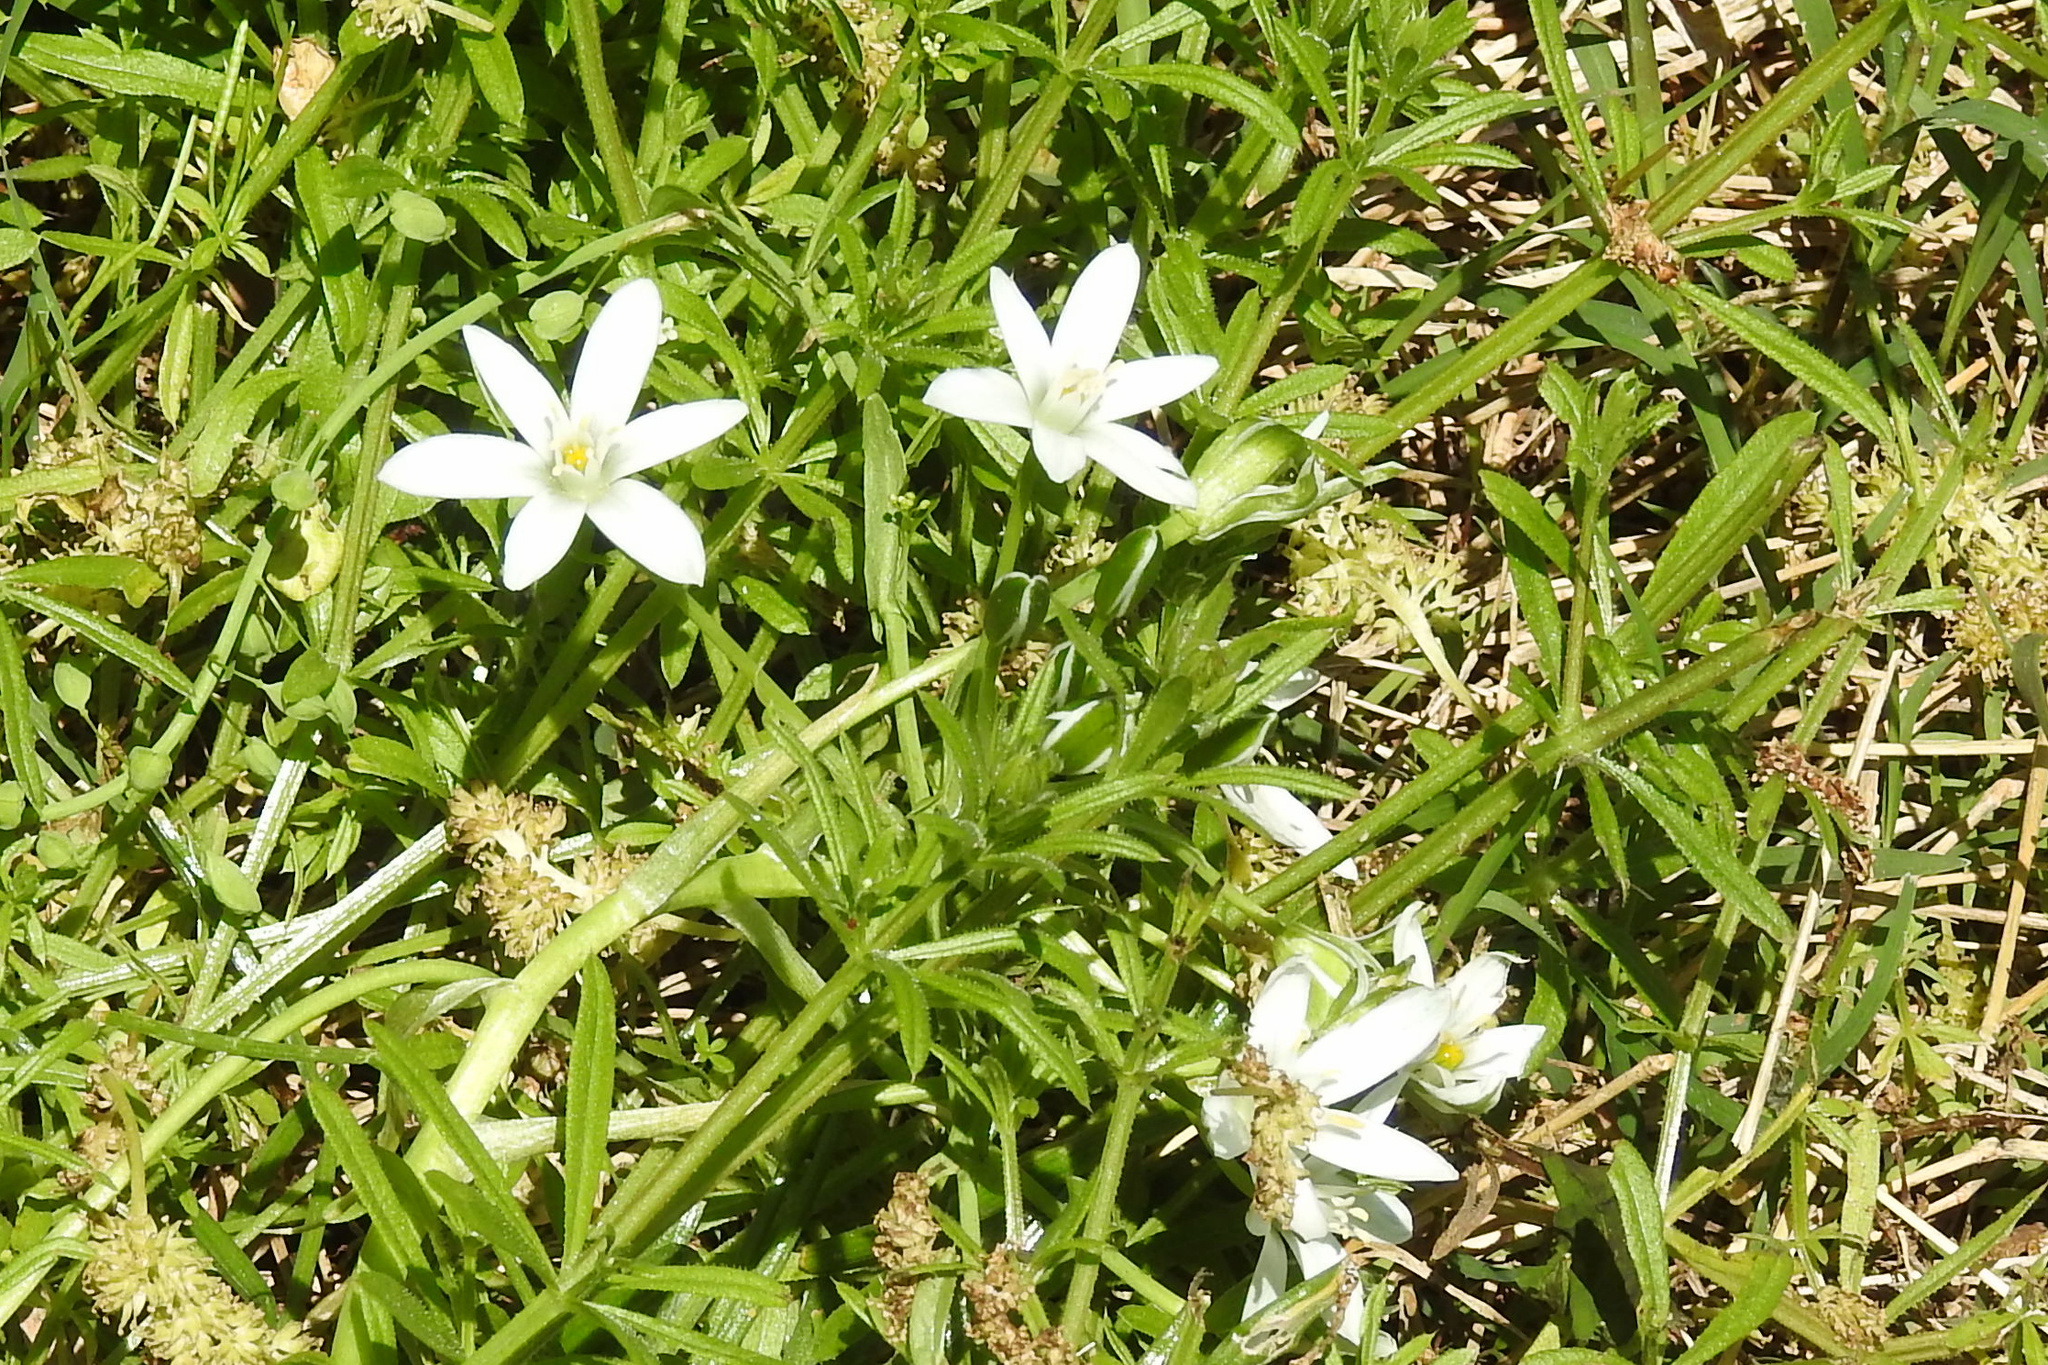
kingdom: Plantae
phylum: Tracheophyta
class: Liliopsida
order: Asparagales
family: Asparagaceae
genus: Ornithogalum
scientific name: Ornithogalum umbellatum
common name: Garden star-of-bethlehem
